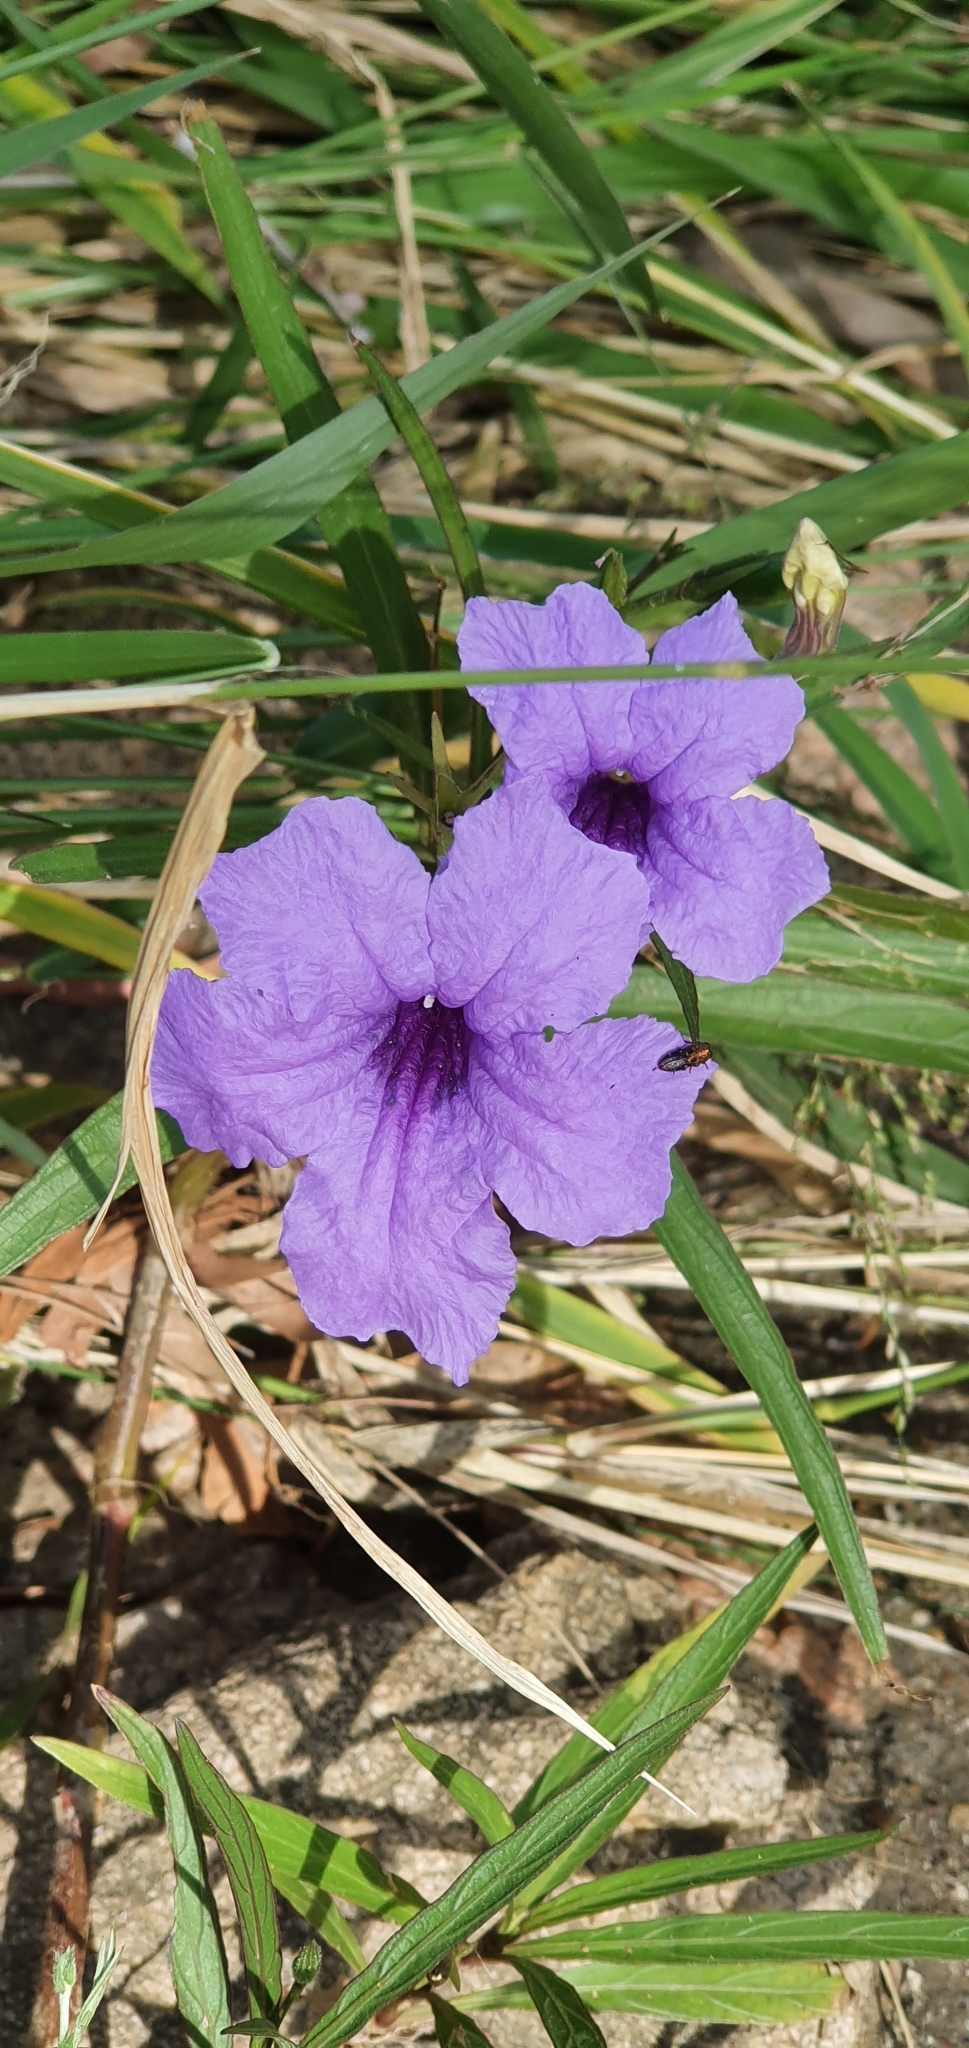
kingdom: Plantae
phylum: Tracheophyta
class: Magnoliopsida
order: Lamiales
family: Acanthaceae
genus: Ruellia
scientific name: Ruellia simplex
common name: Softseed wild petunia
